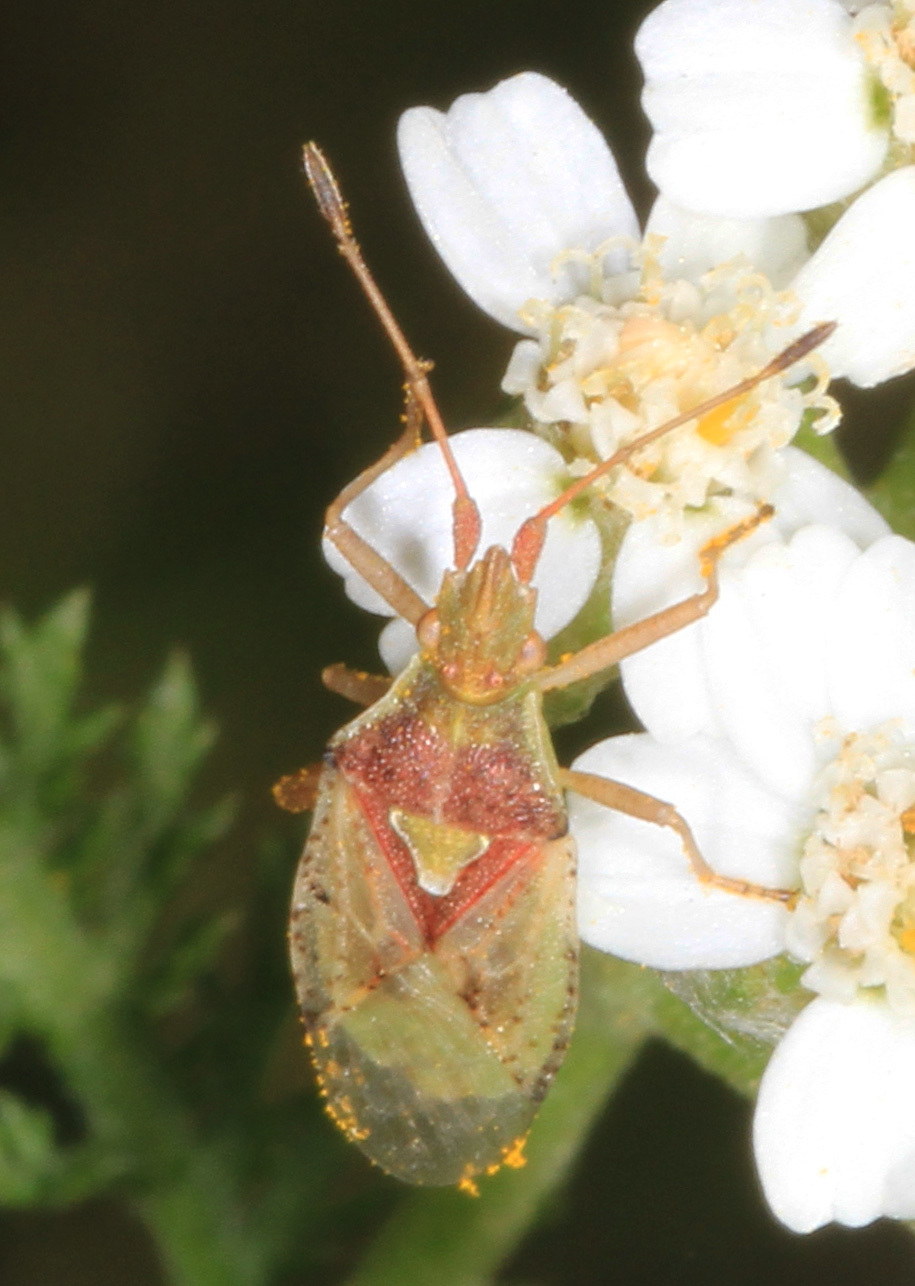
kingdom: Animalia
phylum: Arthropoda
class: Insecta
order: Hemiptera
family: Rhopalidae
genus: Harmostes
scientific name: Harmostes reflexulus
